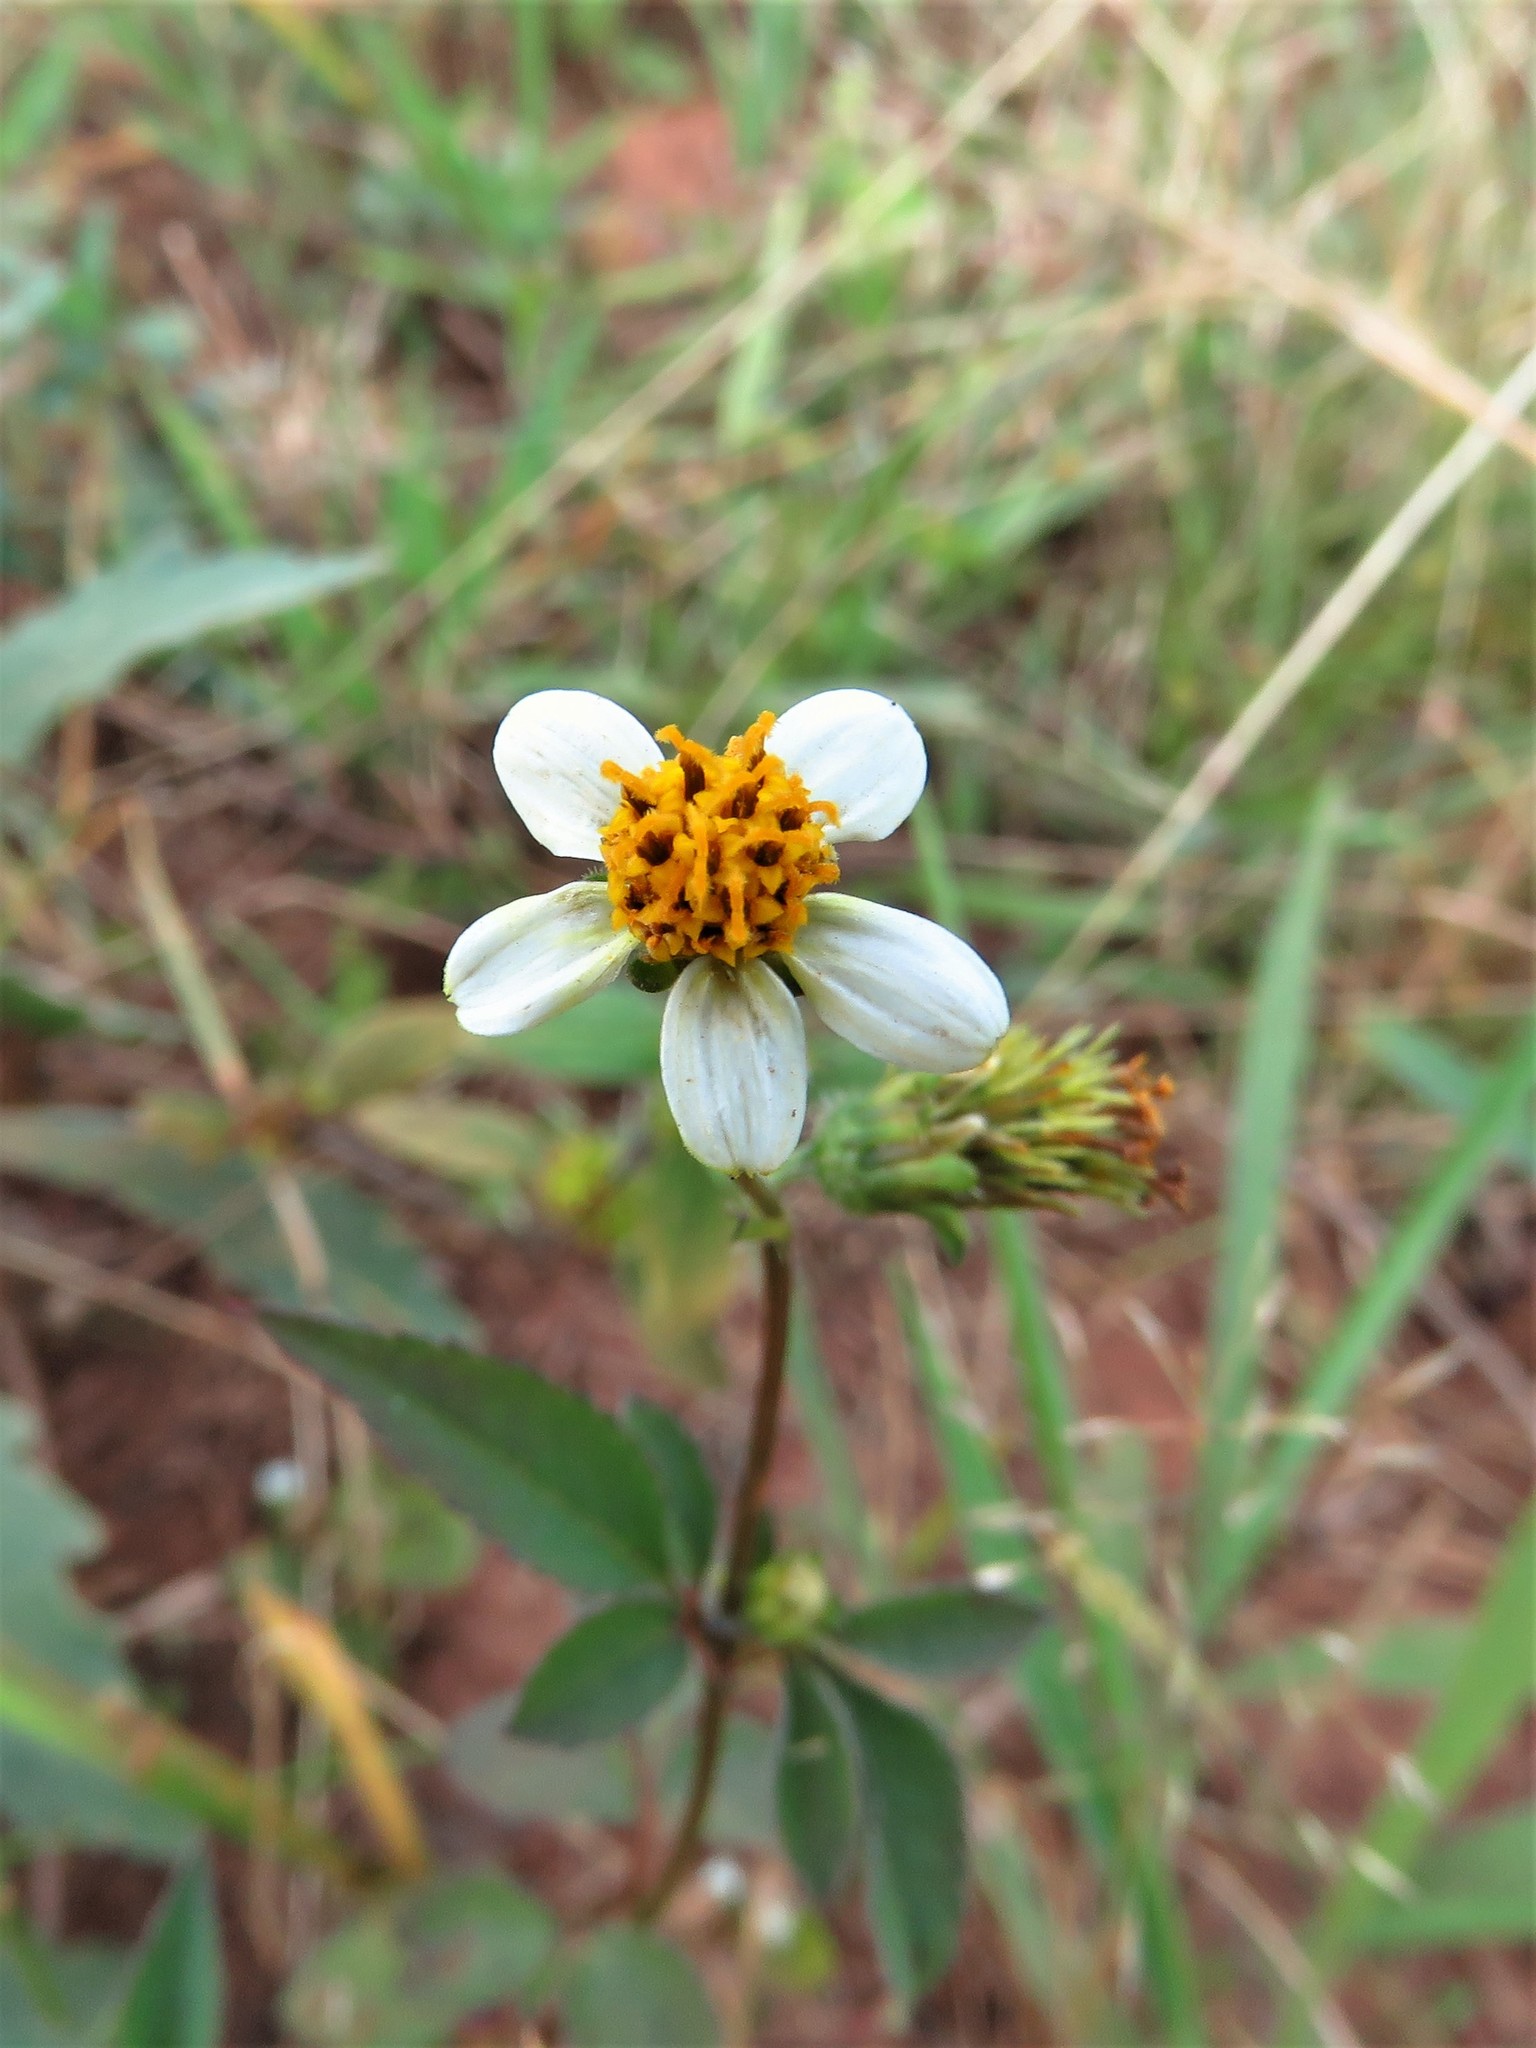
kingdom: Plantae
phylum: Tracheophyta
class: Magnoliopsida
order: Asterales
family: Asteraceae
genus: Bidens
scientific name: Bidens pilosa
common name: Black-jack
